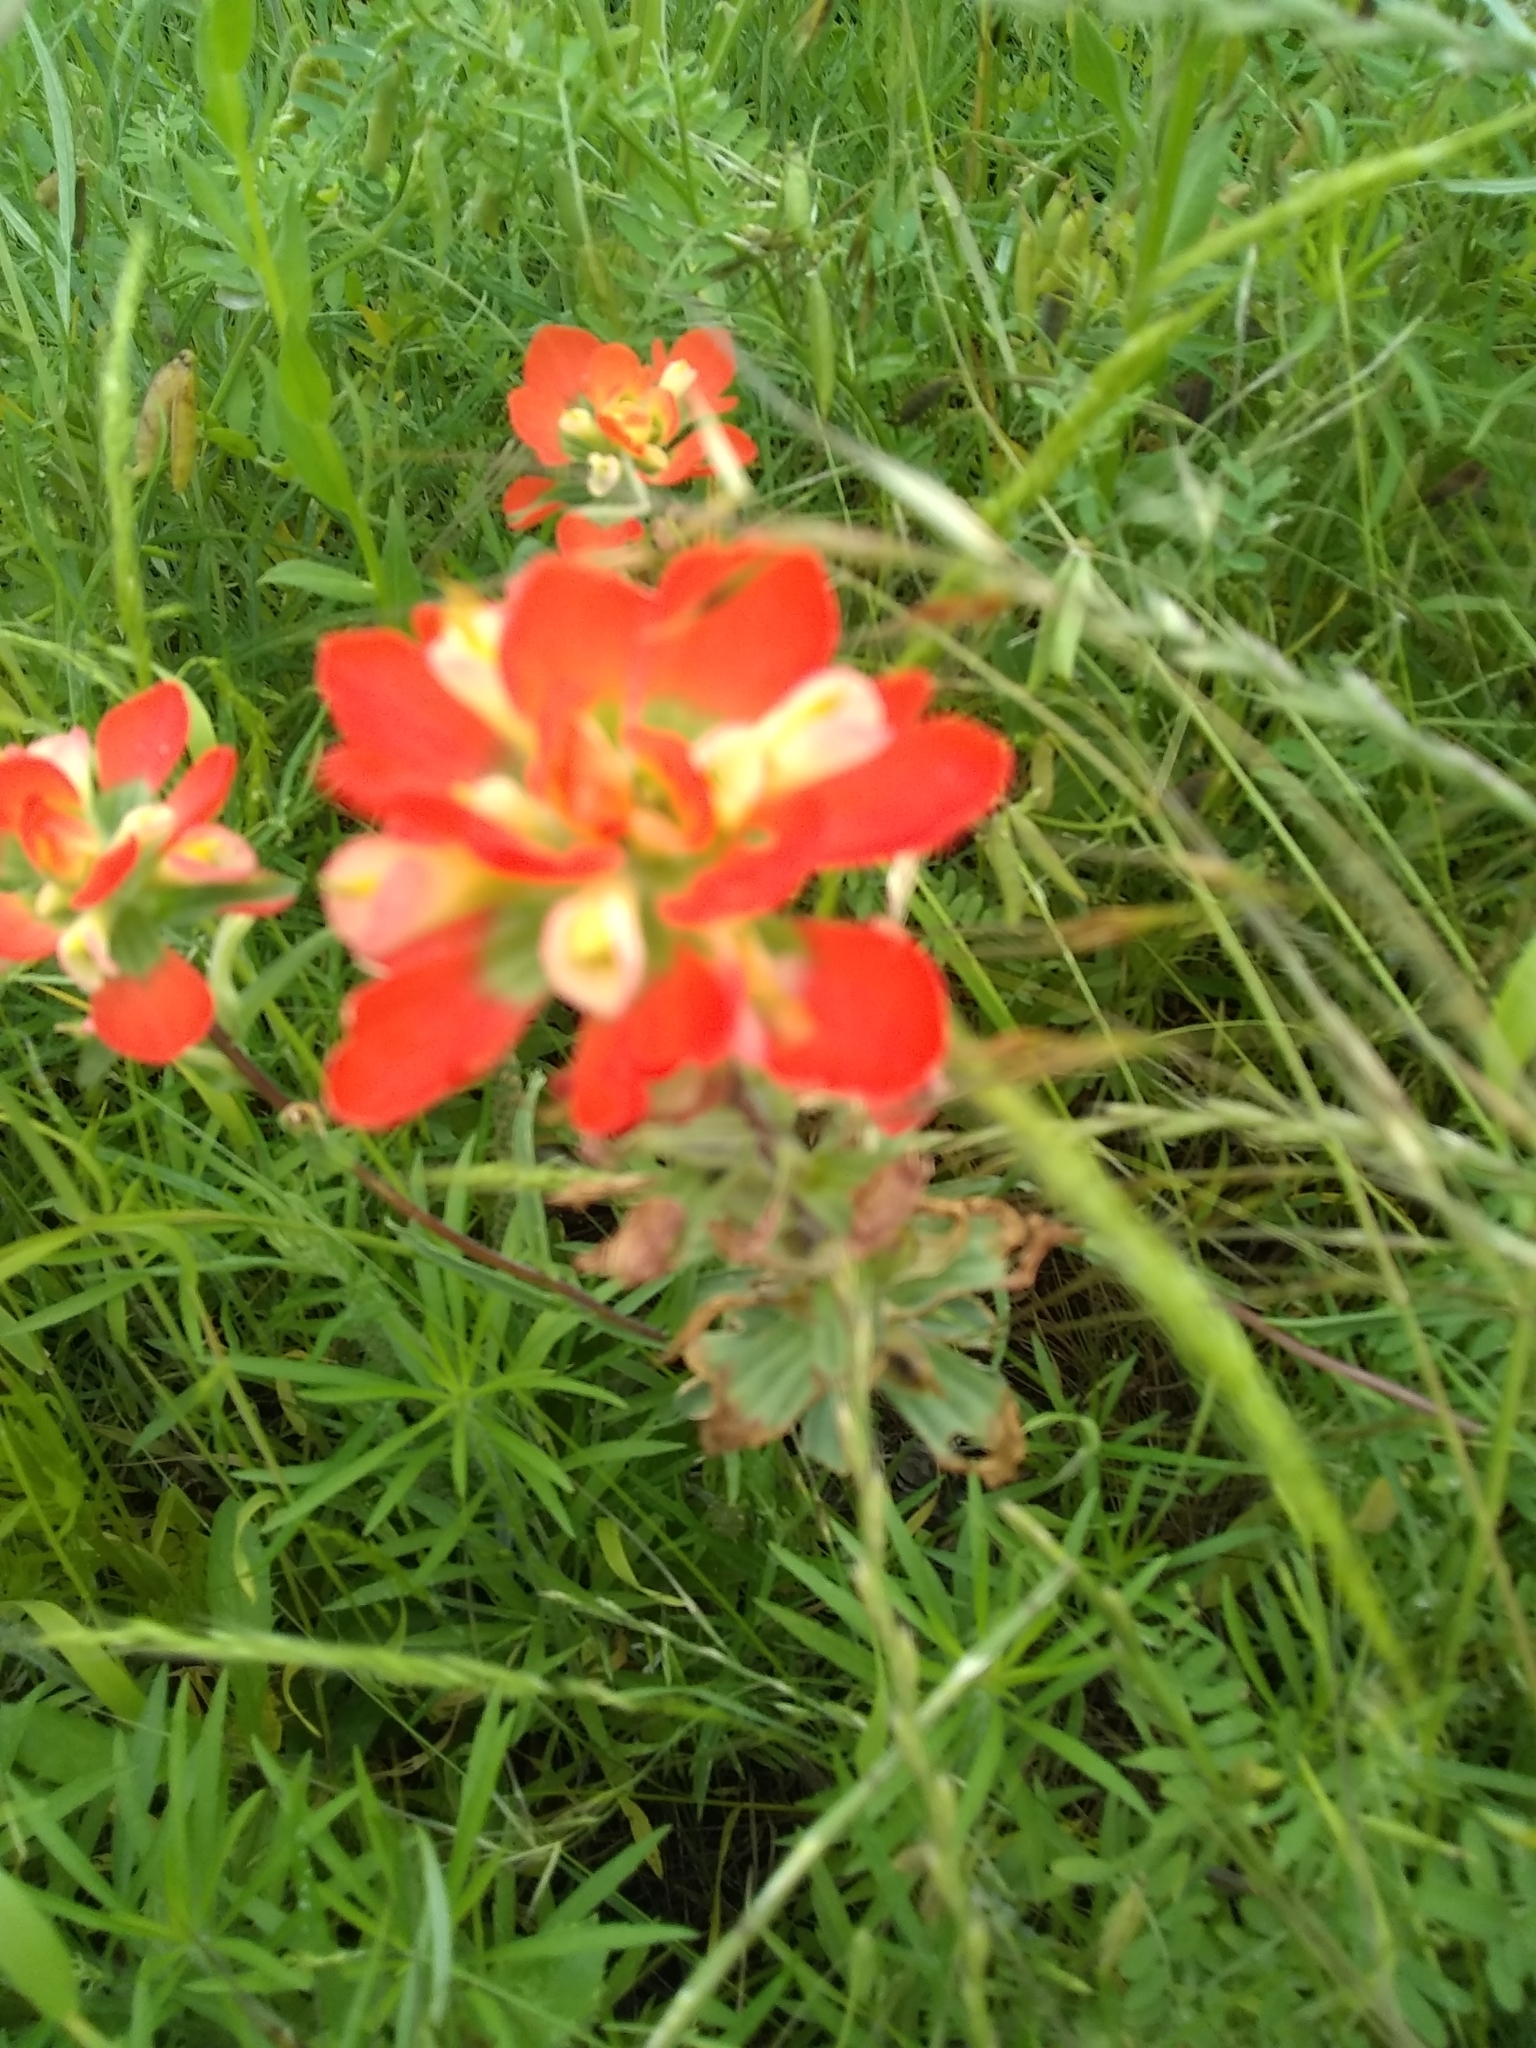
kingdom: Plantae
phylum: Tracheophyta
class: Magnoliopsida
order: Lamiales
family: Orobanchaceae
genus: Castilleja
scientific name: Castilleja indivisa
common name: Texas paintbrush
